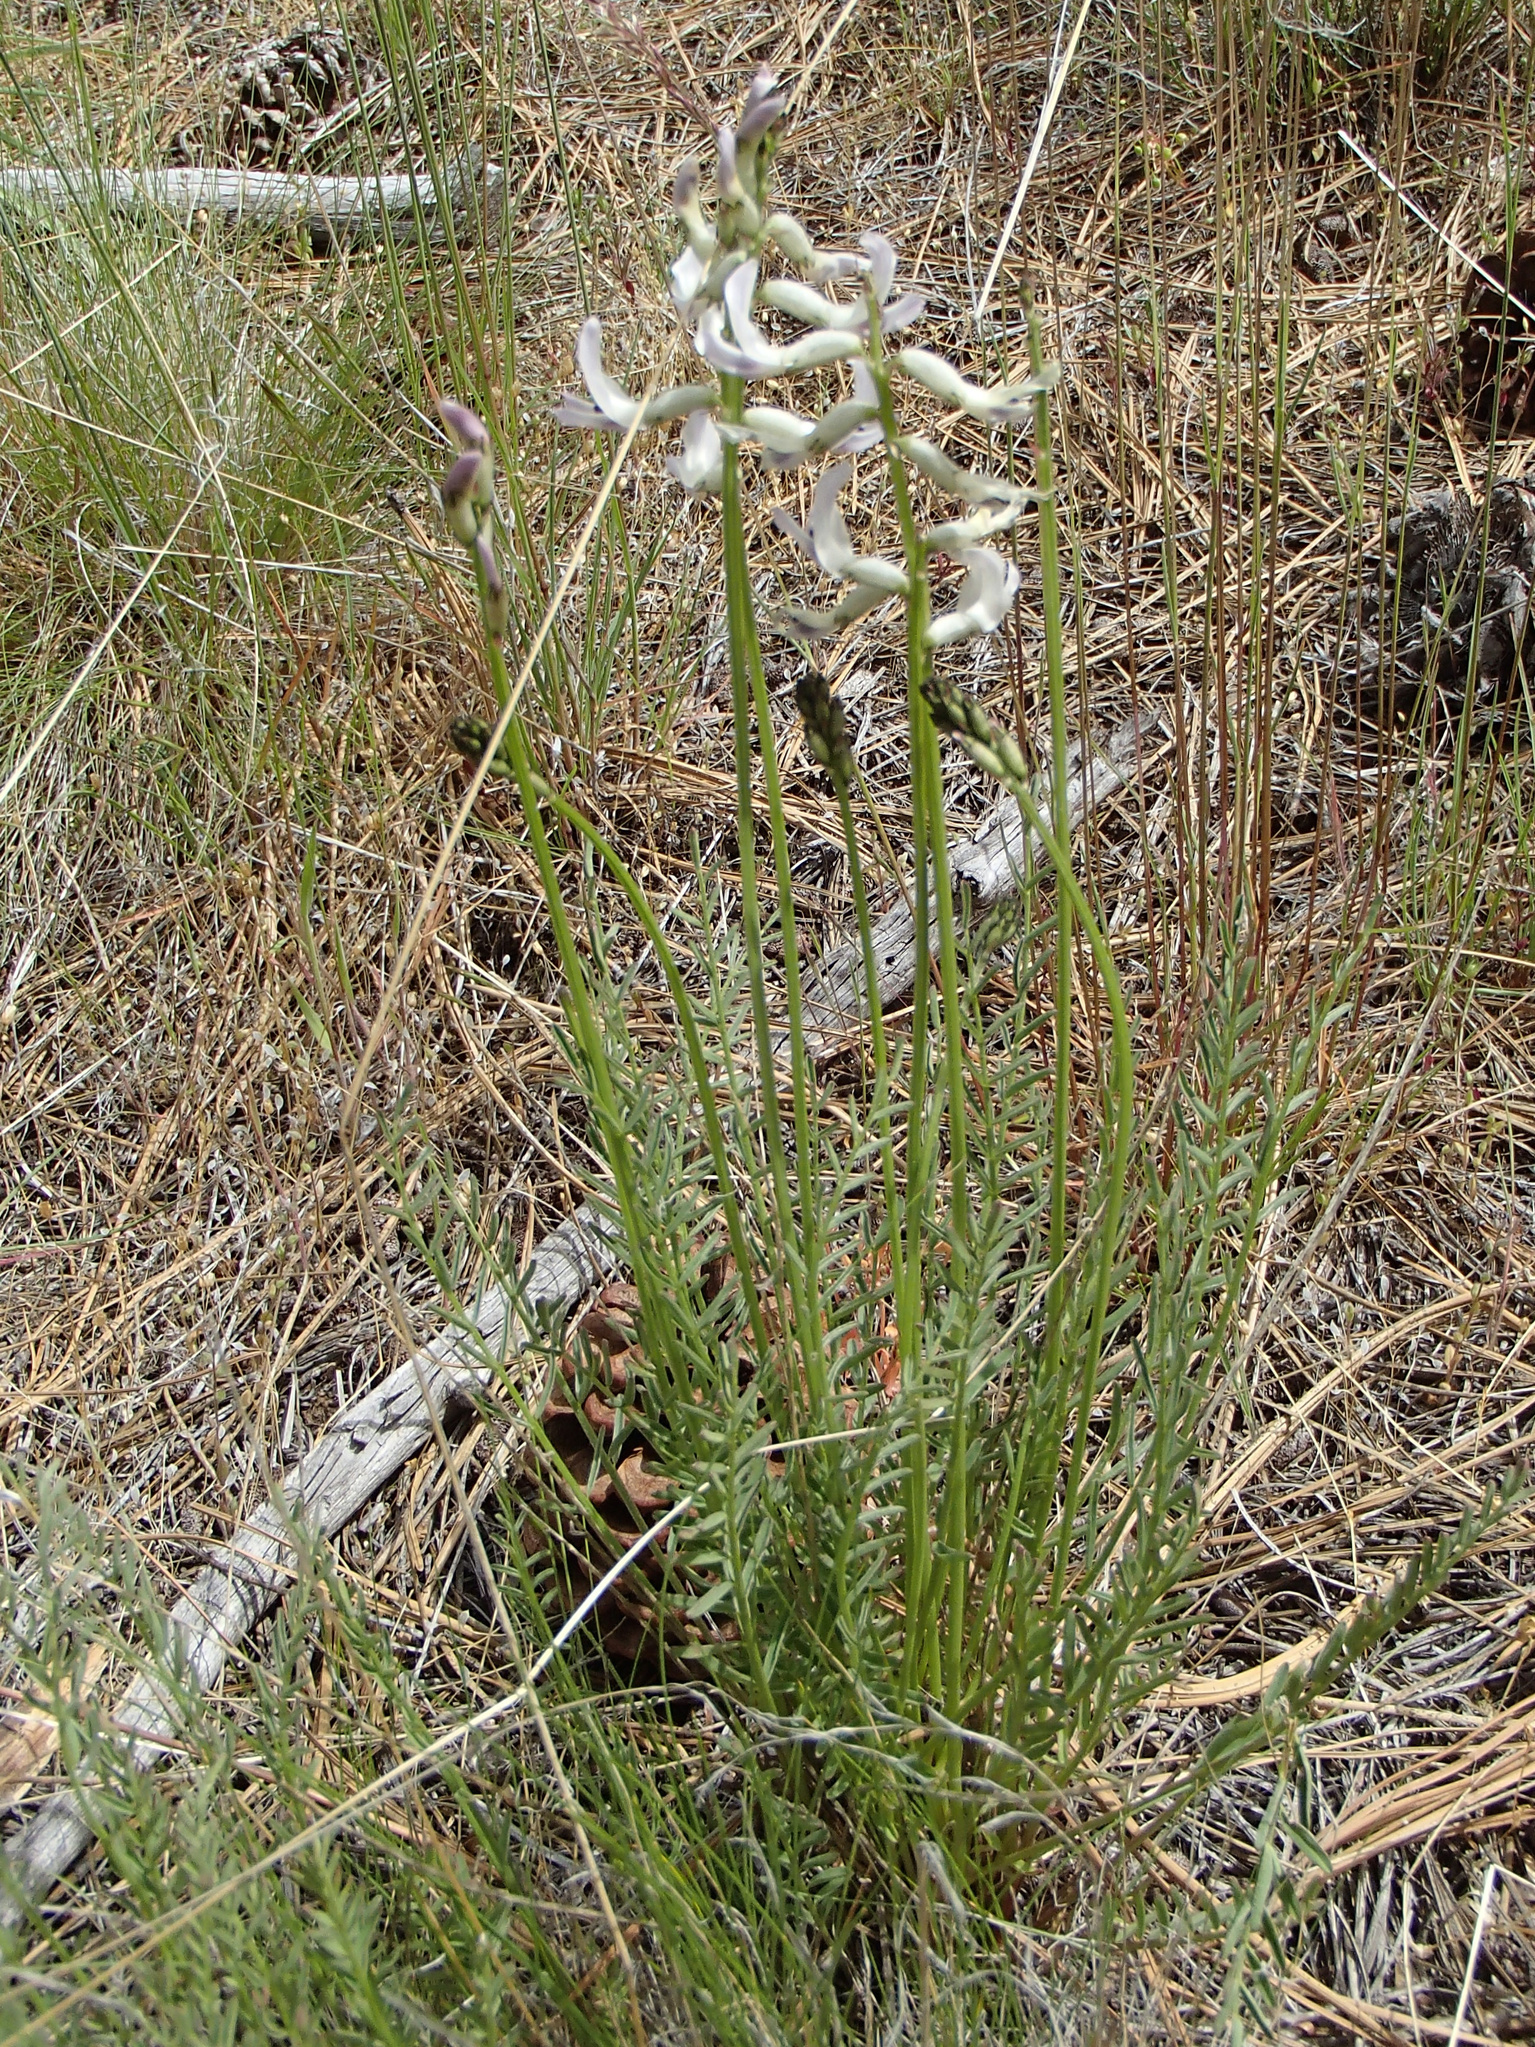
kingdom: Plantae
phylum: Tracheophyta
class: Magnoliopsida
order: Fabales
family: Fabaceae
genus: Astragalus
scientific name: Astragalus conjunctus
